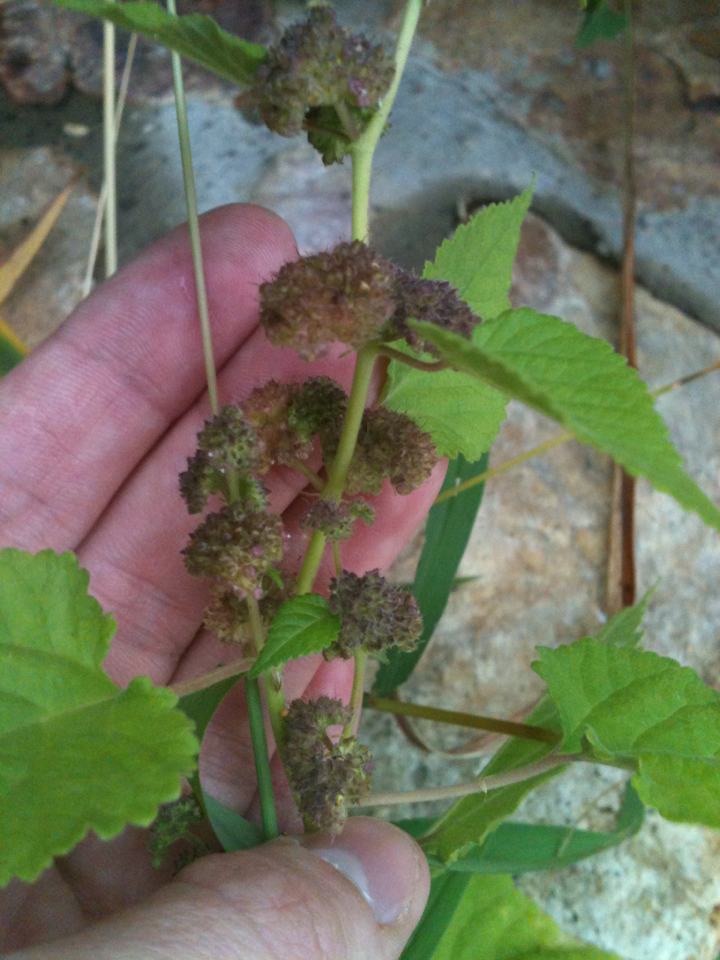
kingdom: Plantae
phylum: Tracheophyta
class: Magnoliopsida
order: Rosales
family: Moraceae
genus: Fatoua
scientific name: Fatoua villosa
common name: Hairy crabweed
